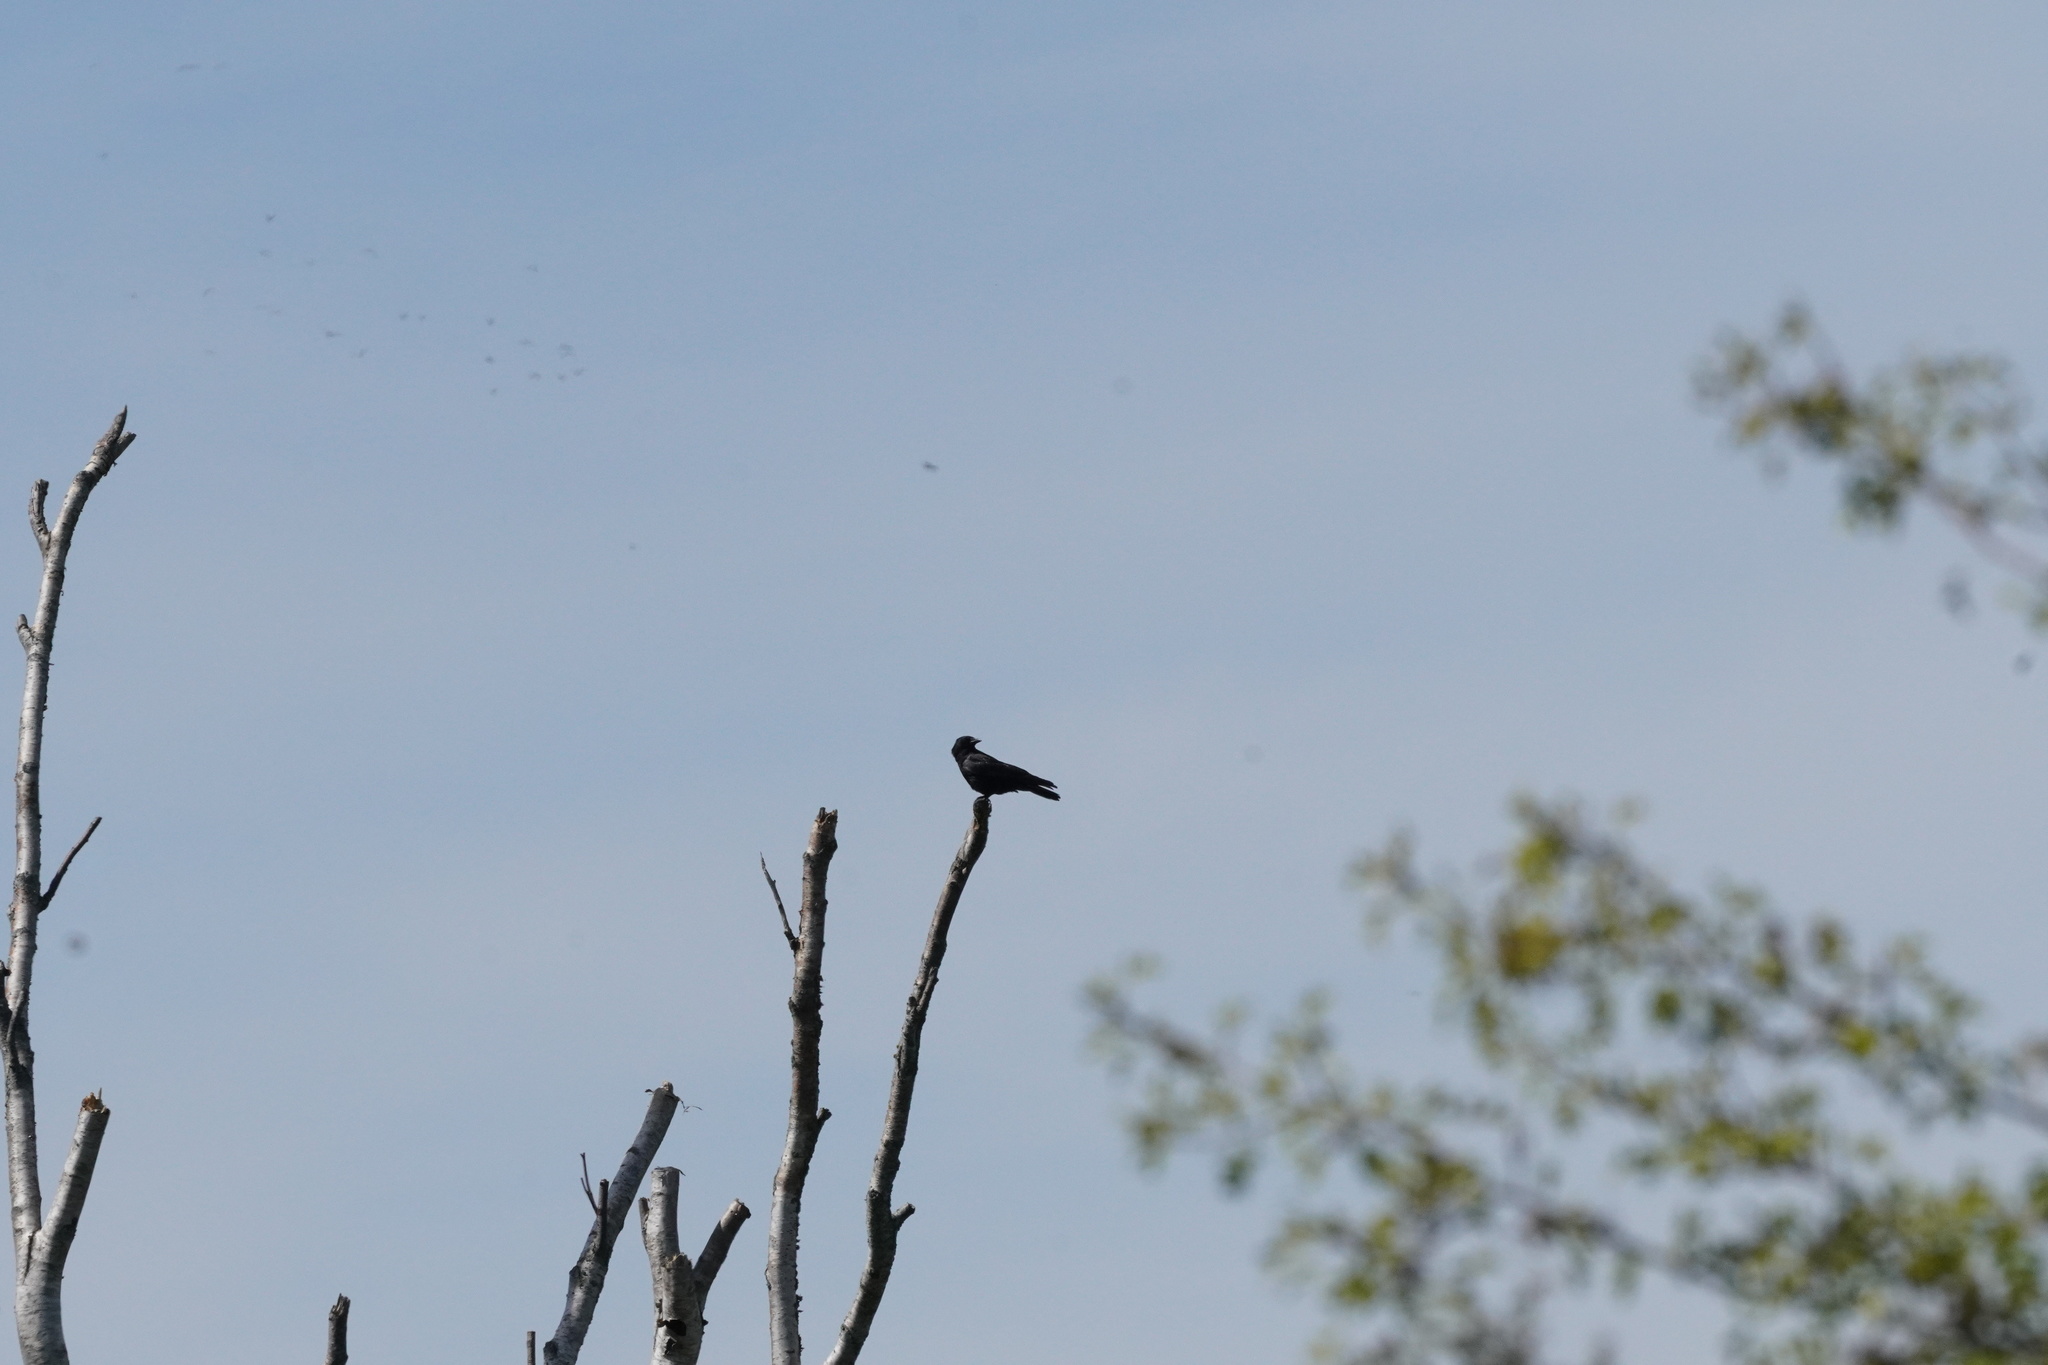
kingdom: Animalia
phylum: Chordata
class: Aves
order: Passeriformes
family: Corvidae
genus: Corvus
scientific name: Corvus brachyrhynchos
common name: American crow
